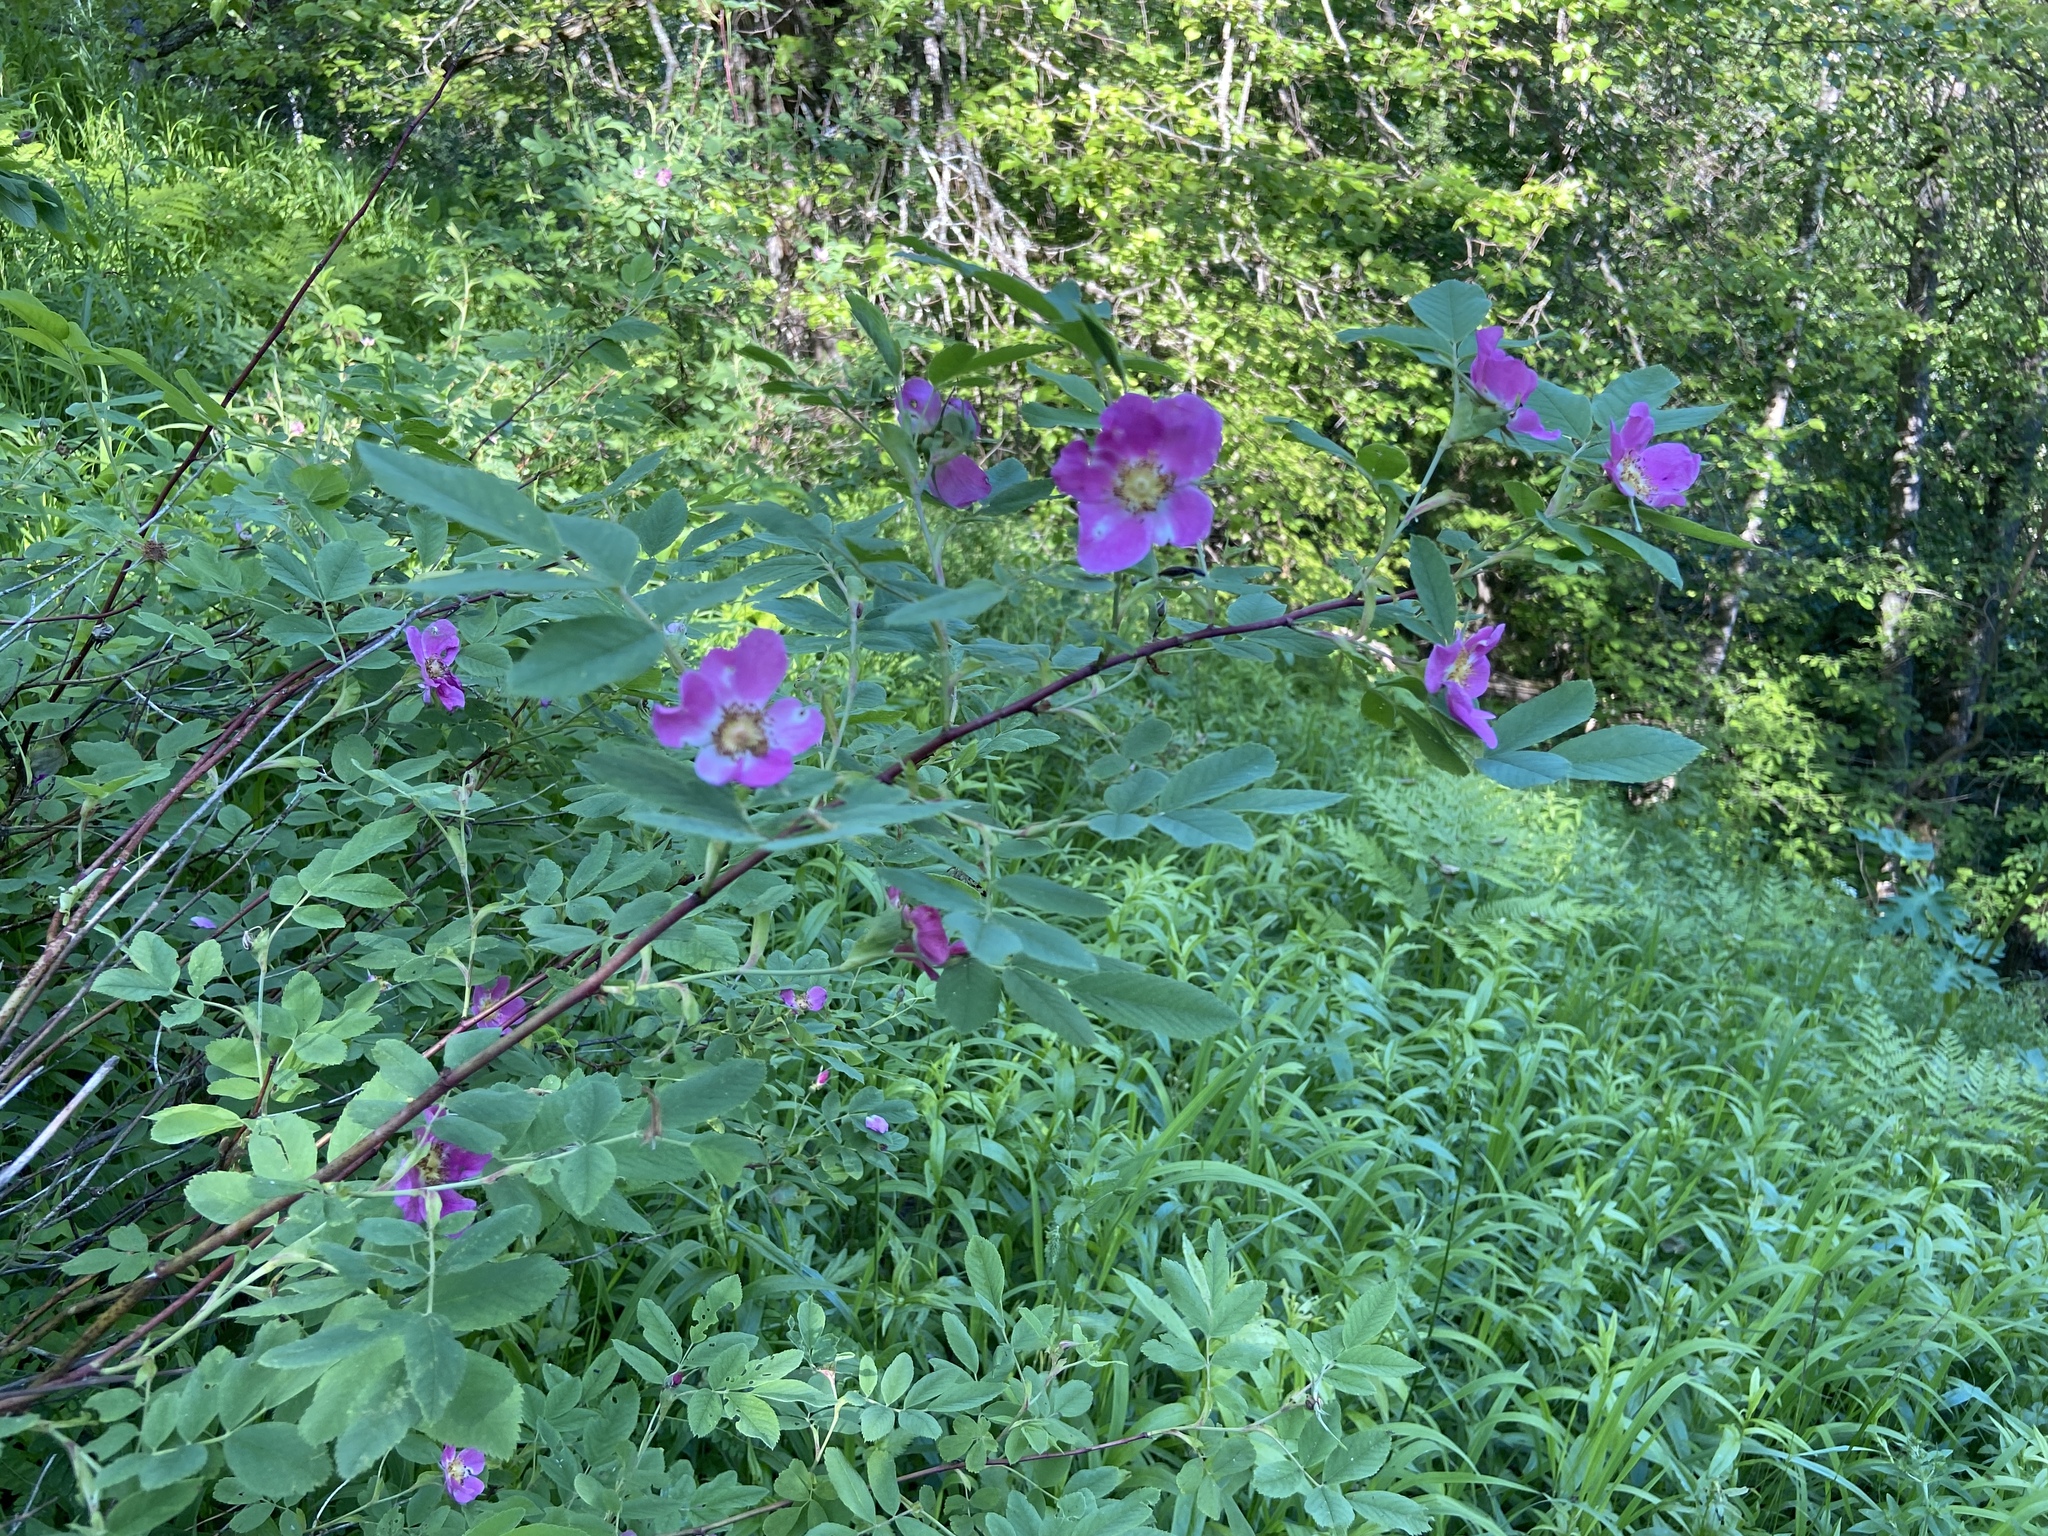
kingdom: Plantae
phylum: Tracheophyta
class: Magnoliopsida
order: Rosales
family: Rosaceae
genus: Rosa
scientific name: Rosa majalis
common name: Cinnamon rose
